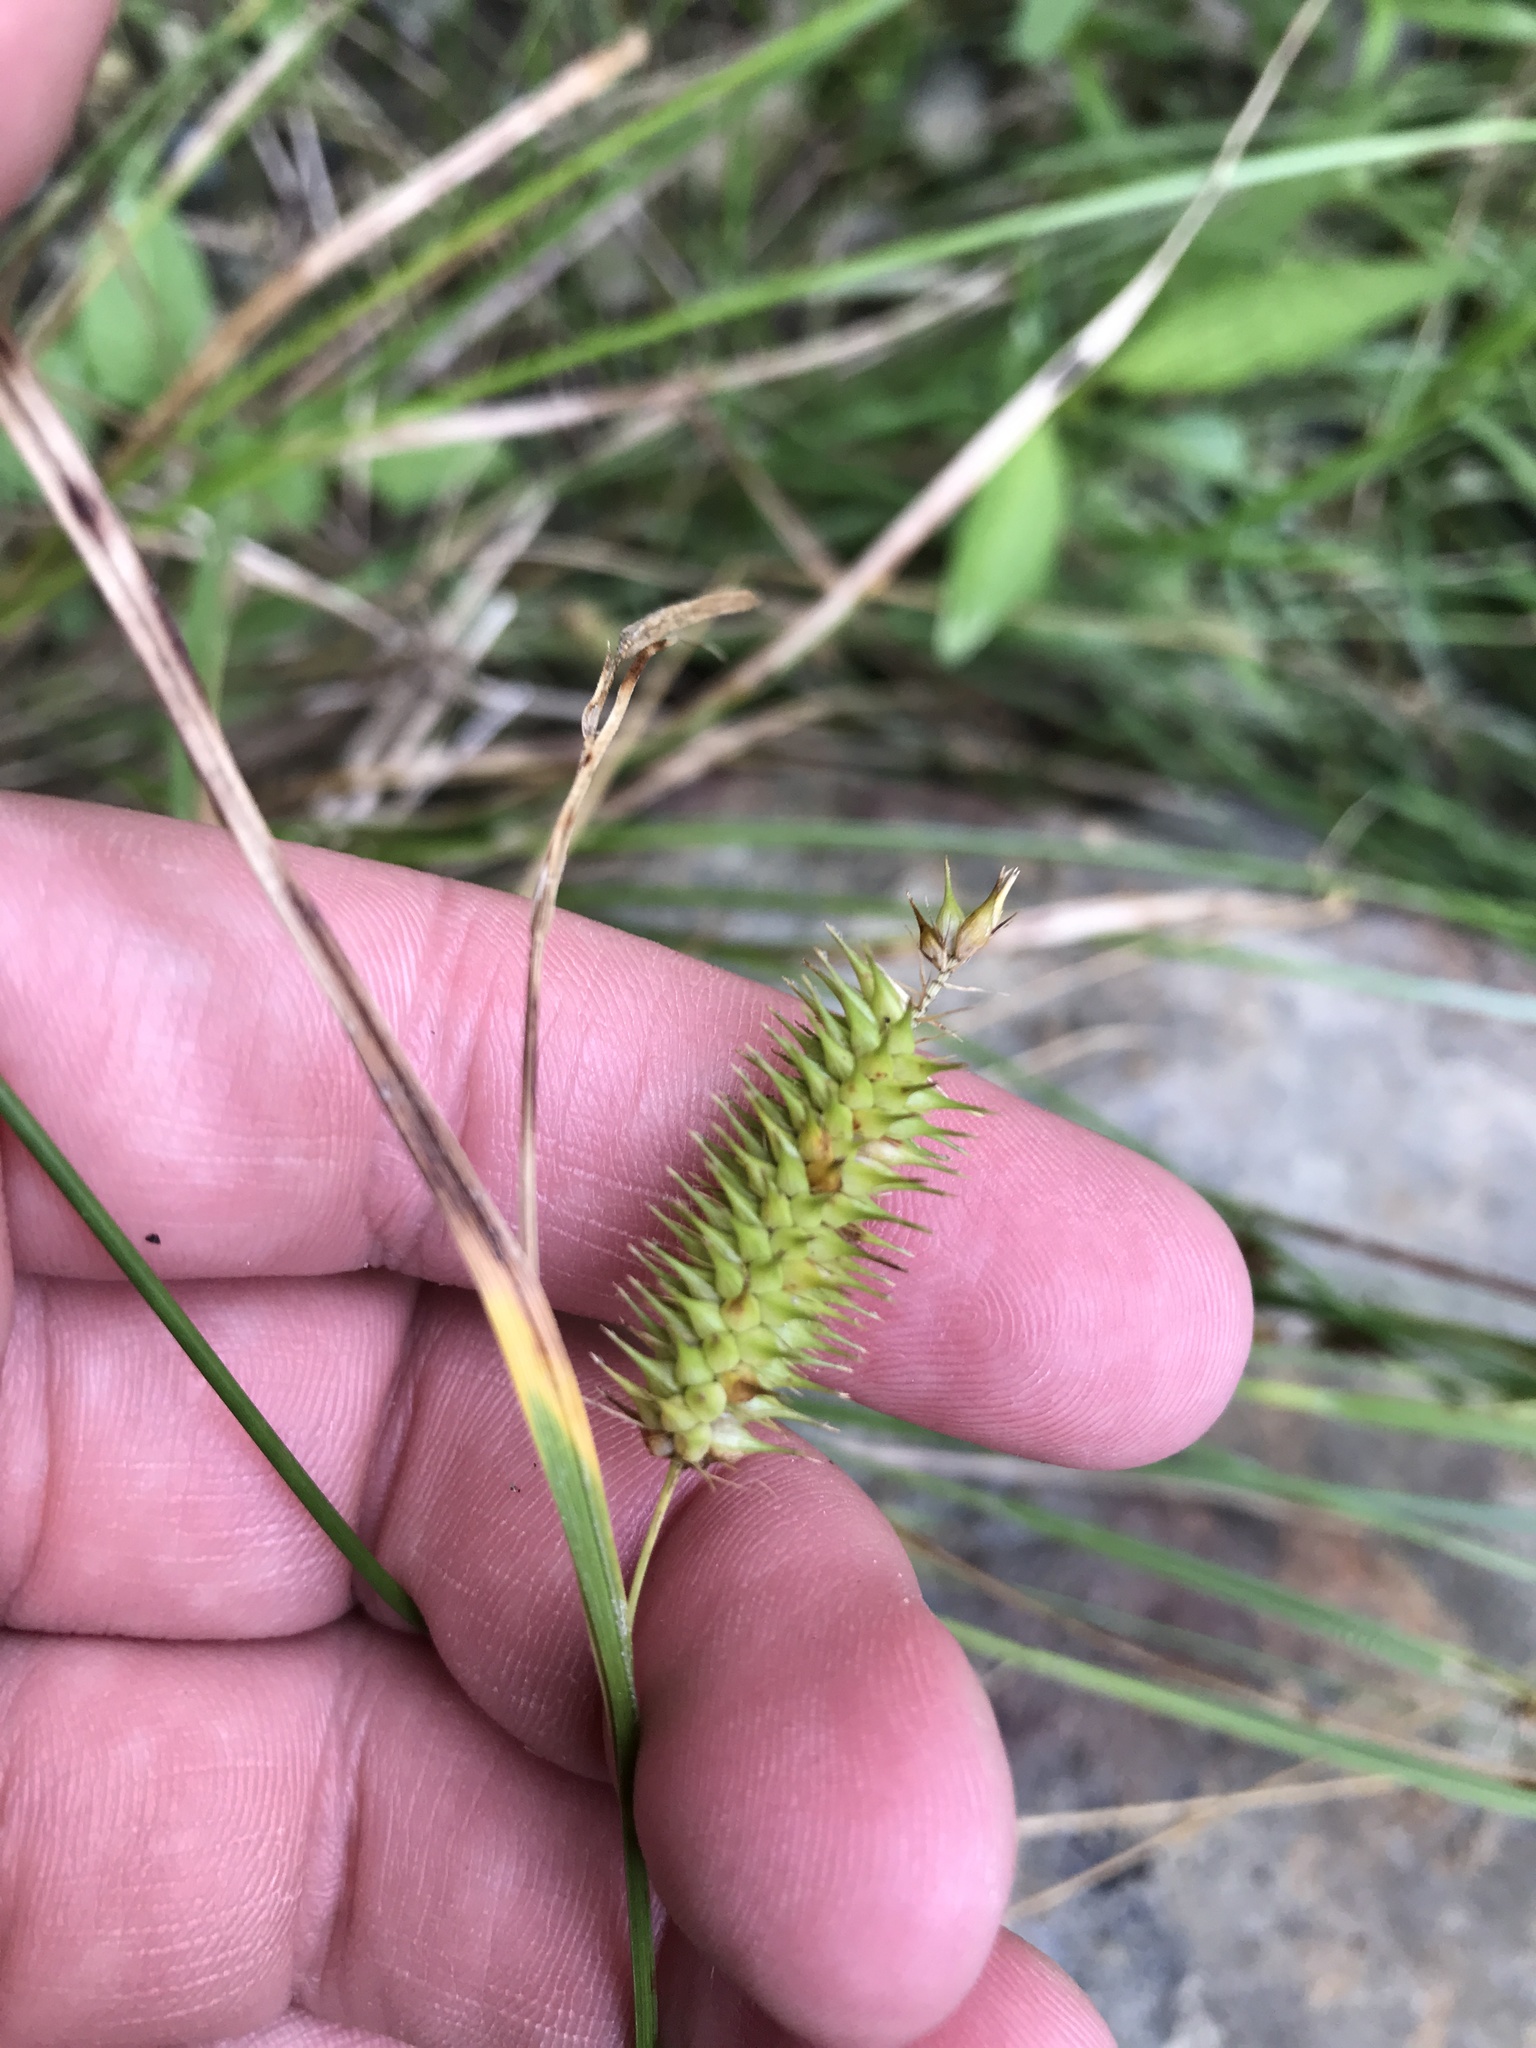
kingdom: Plantae
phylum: Tracheophyta
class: Liliopsida
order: Poales
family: Cyperaceae
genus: Carex
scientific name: Carex hystericina
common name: Bottlebrush sedge
